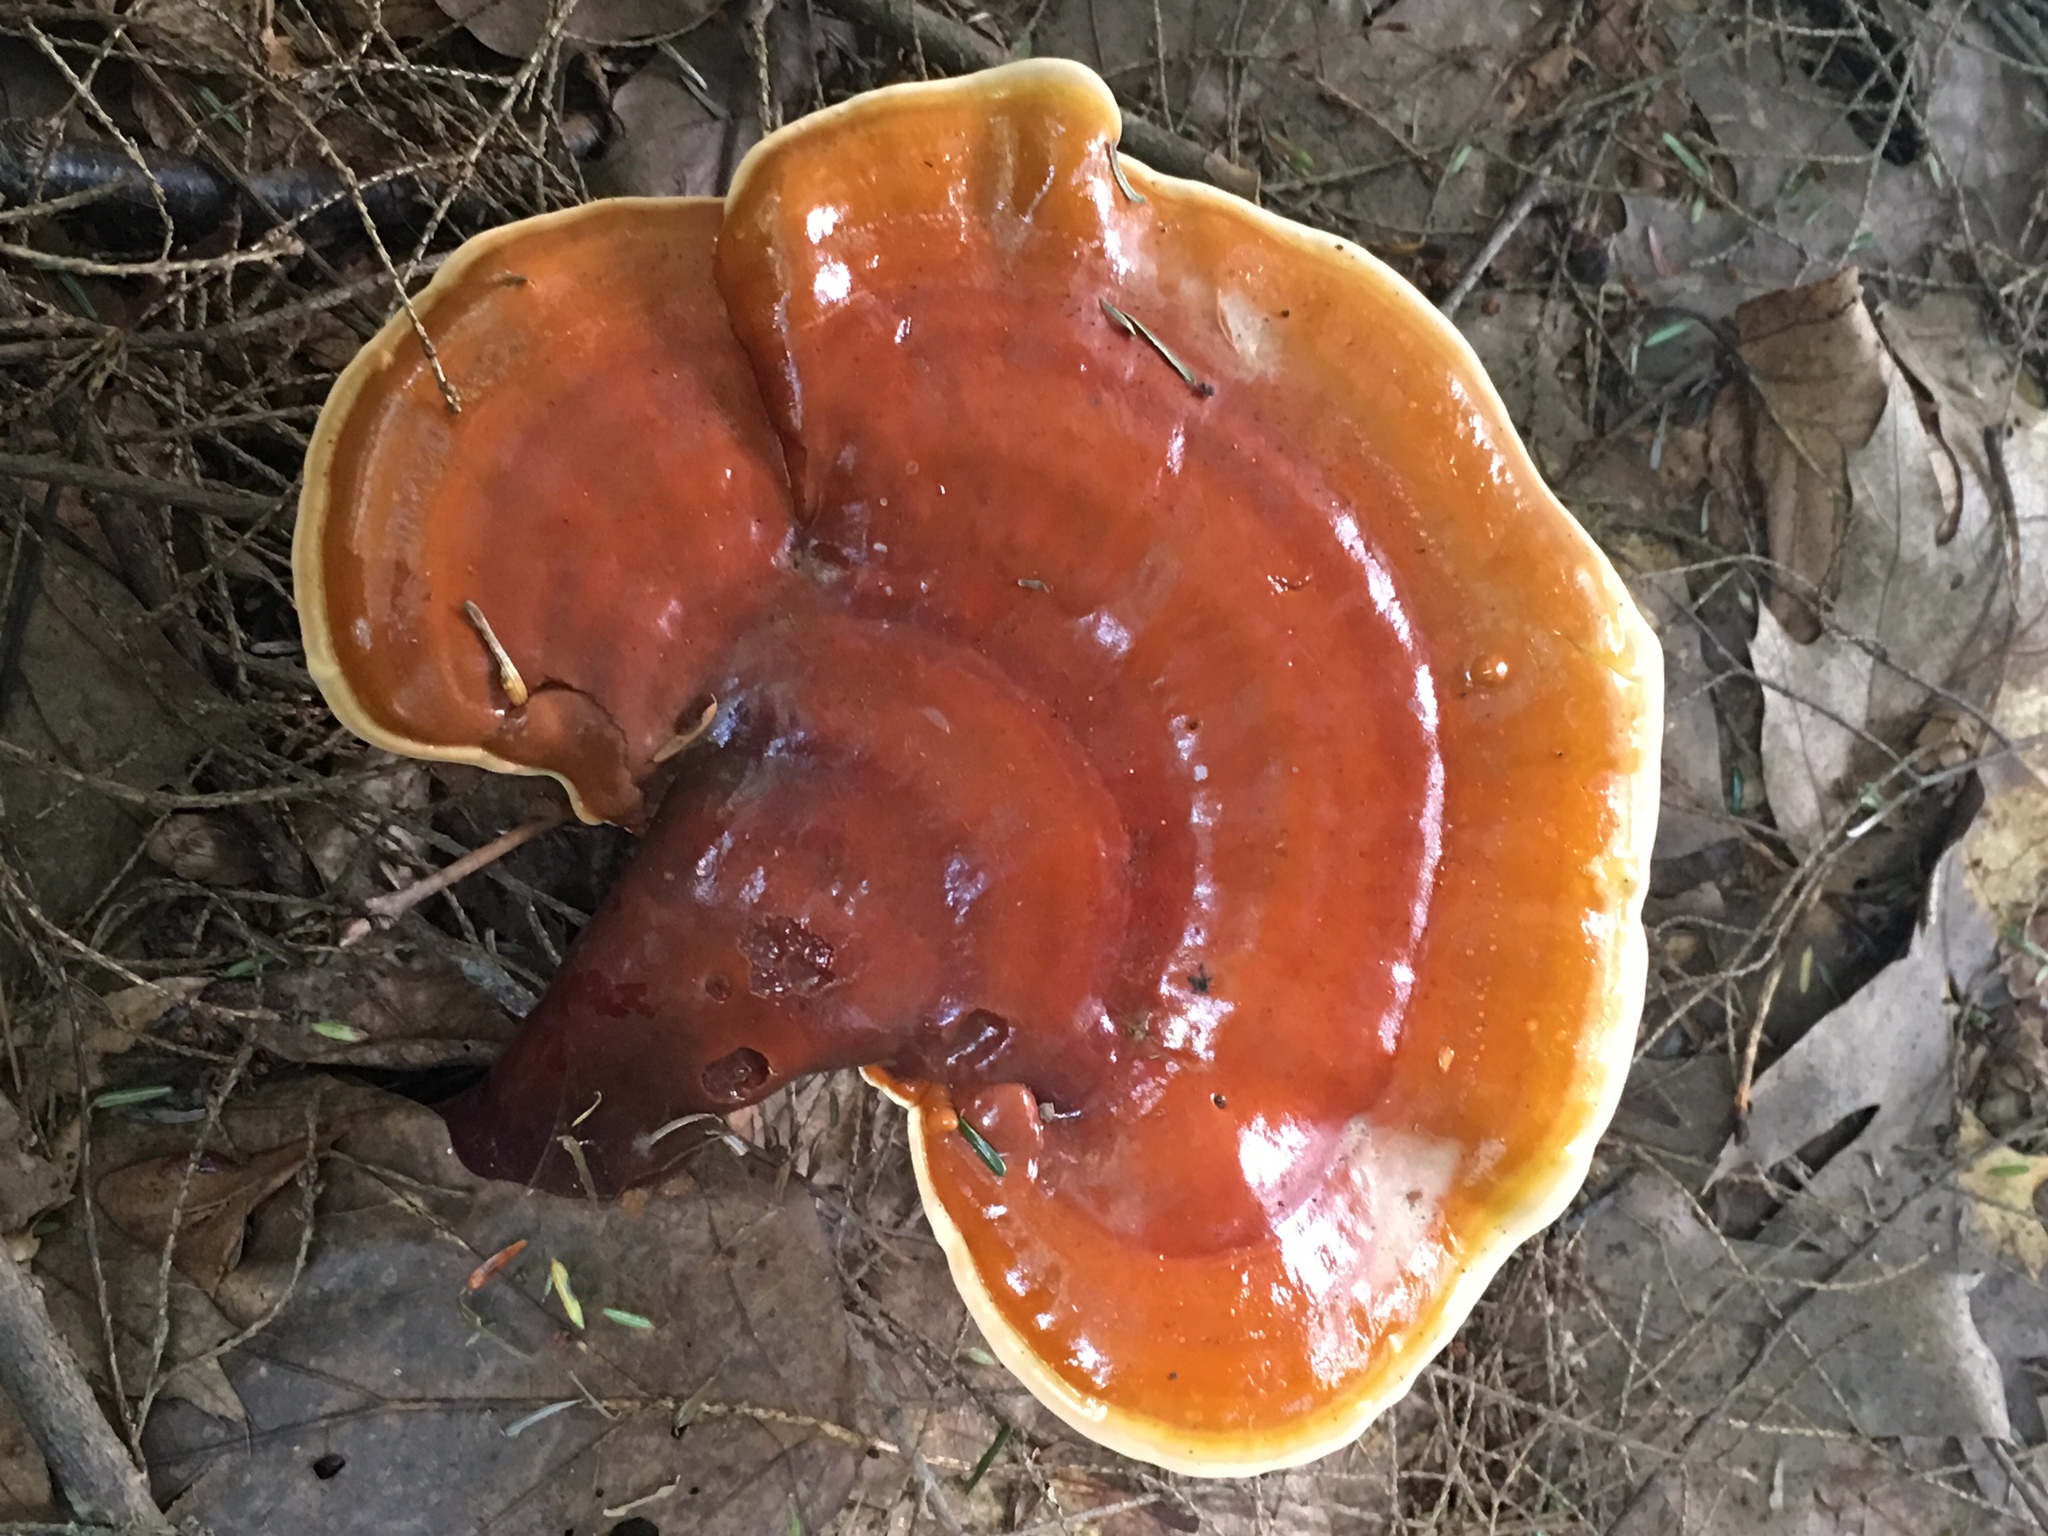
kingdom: Fungi
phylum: Basidiomycota
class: Agaricomycetes
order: Polyporales
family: Polyporaceae
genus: Ganoderma
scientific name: Ganoderma tsugae
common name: Hemlock varnish shelf
